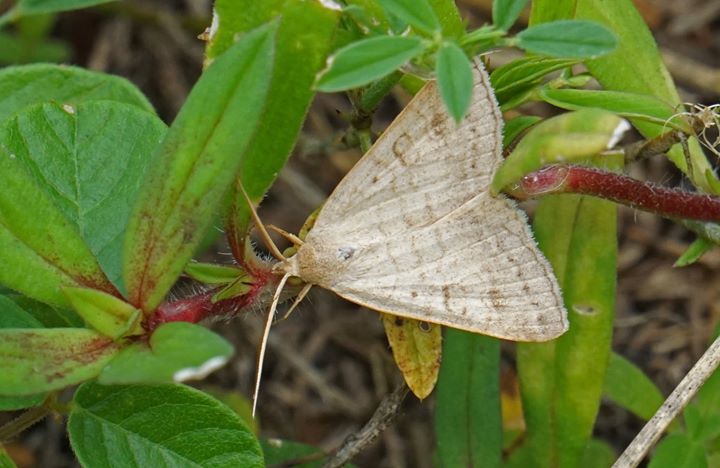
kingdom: Animalia
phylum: Arthropoda
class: Insecta
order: Lepidoptera
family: Erebidae
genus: Caenurgia
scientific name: Caenurgia chloropha
